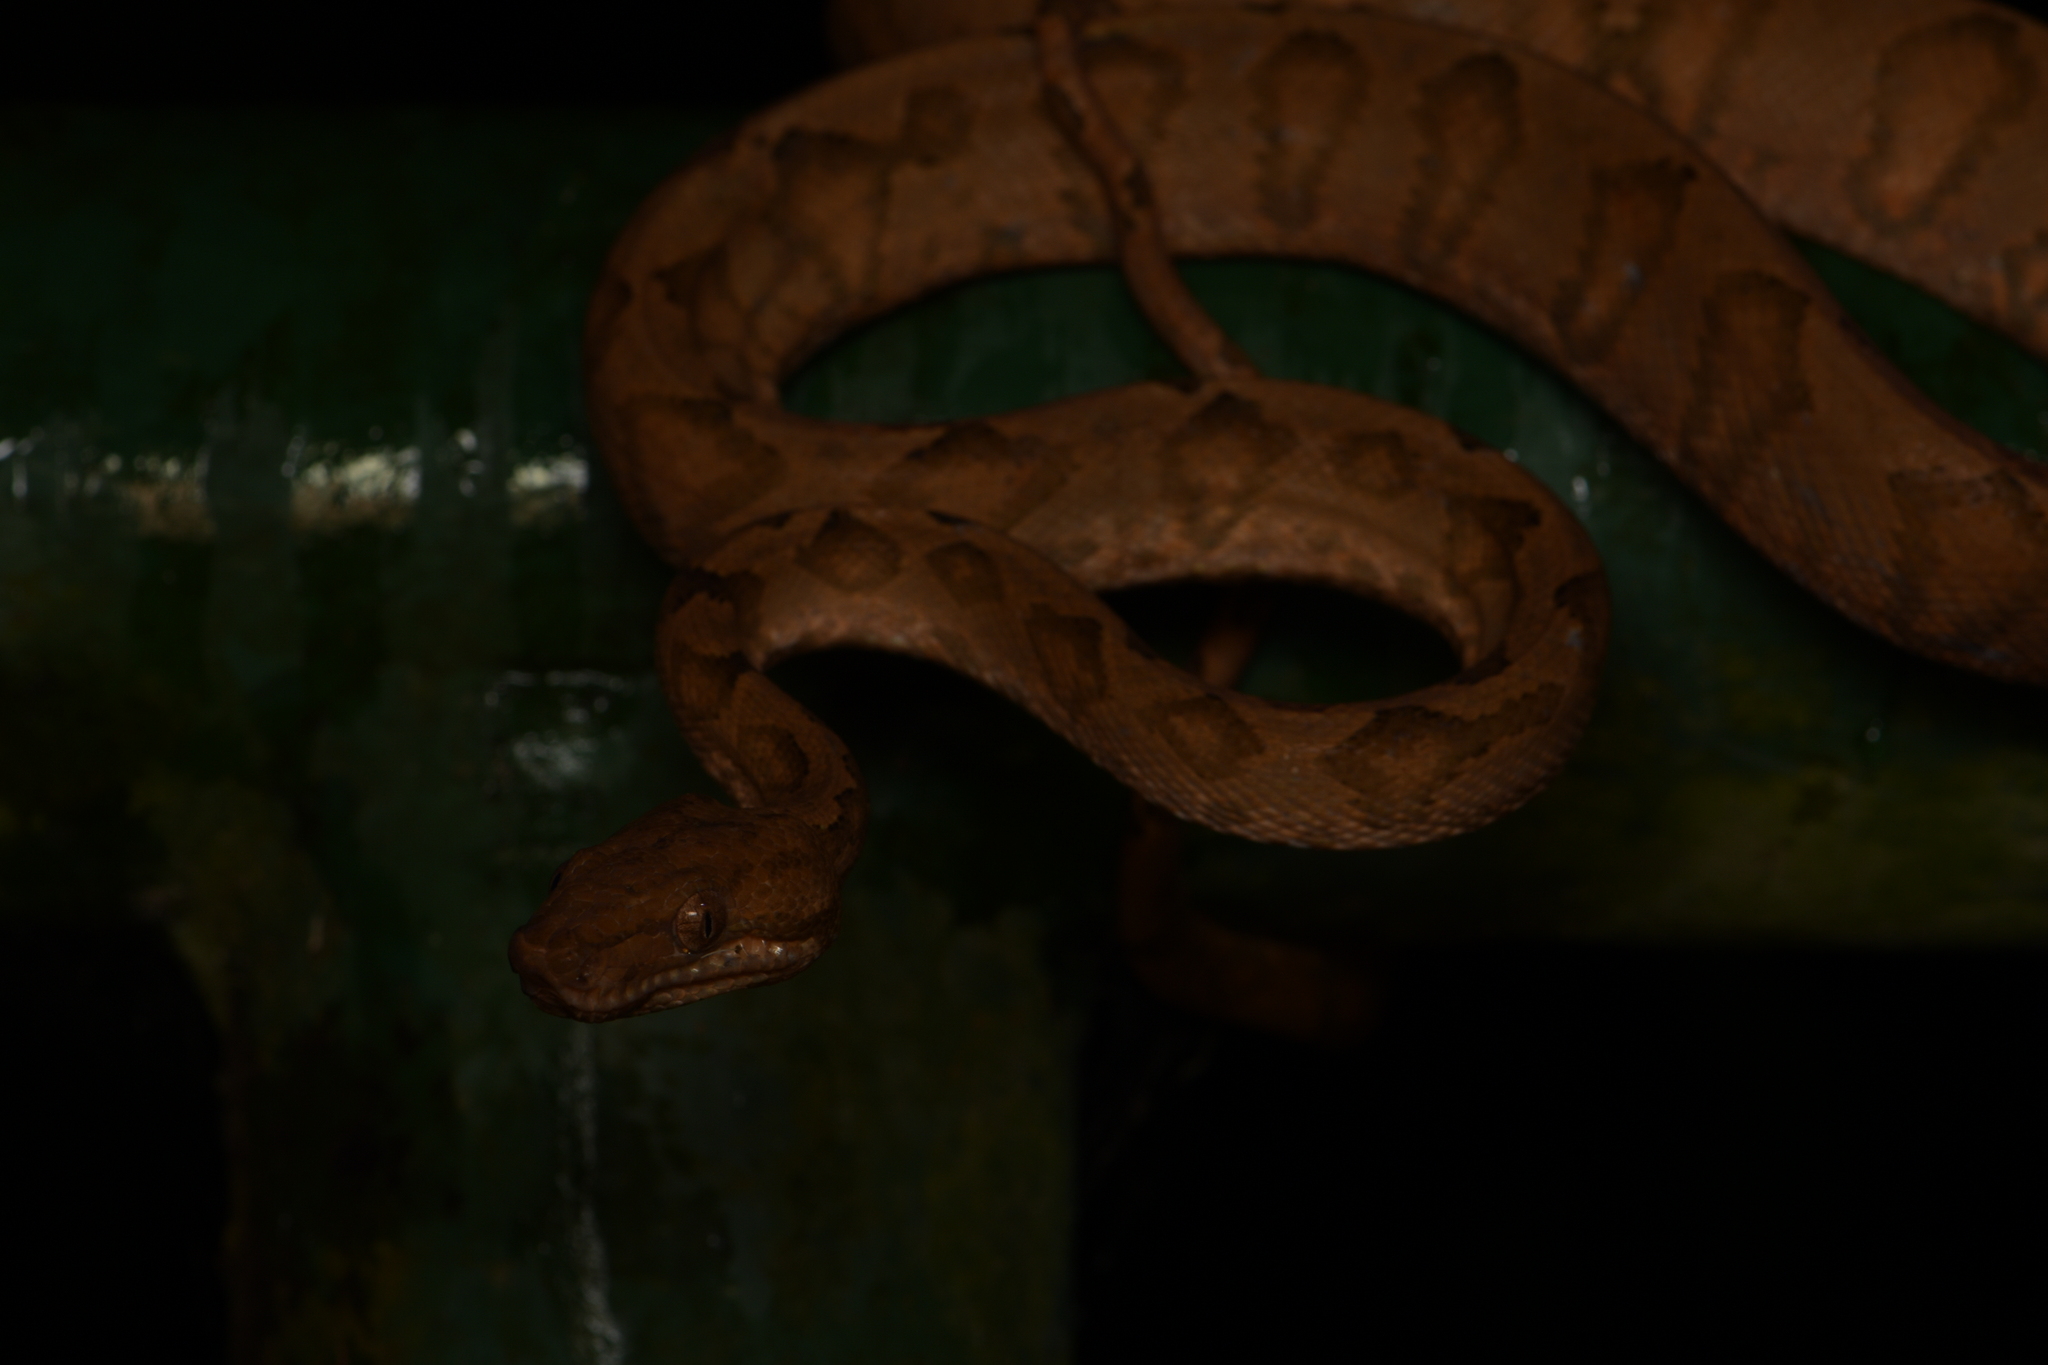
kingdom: Animalia
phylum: Chordata
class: Squamata
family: Boidae
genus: Corallus
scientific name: Corallus annulatus
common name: Ringed tree boa
